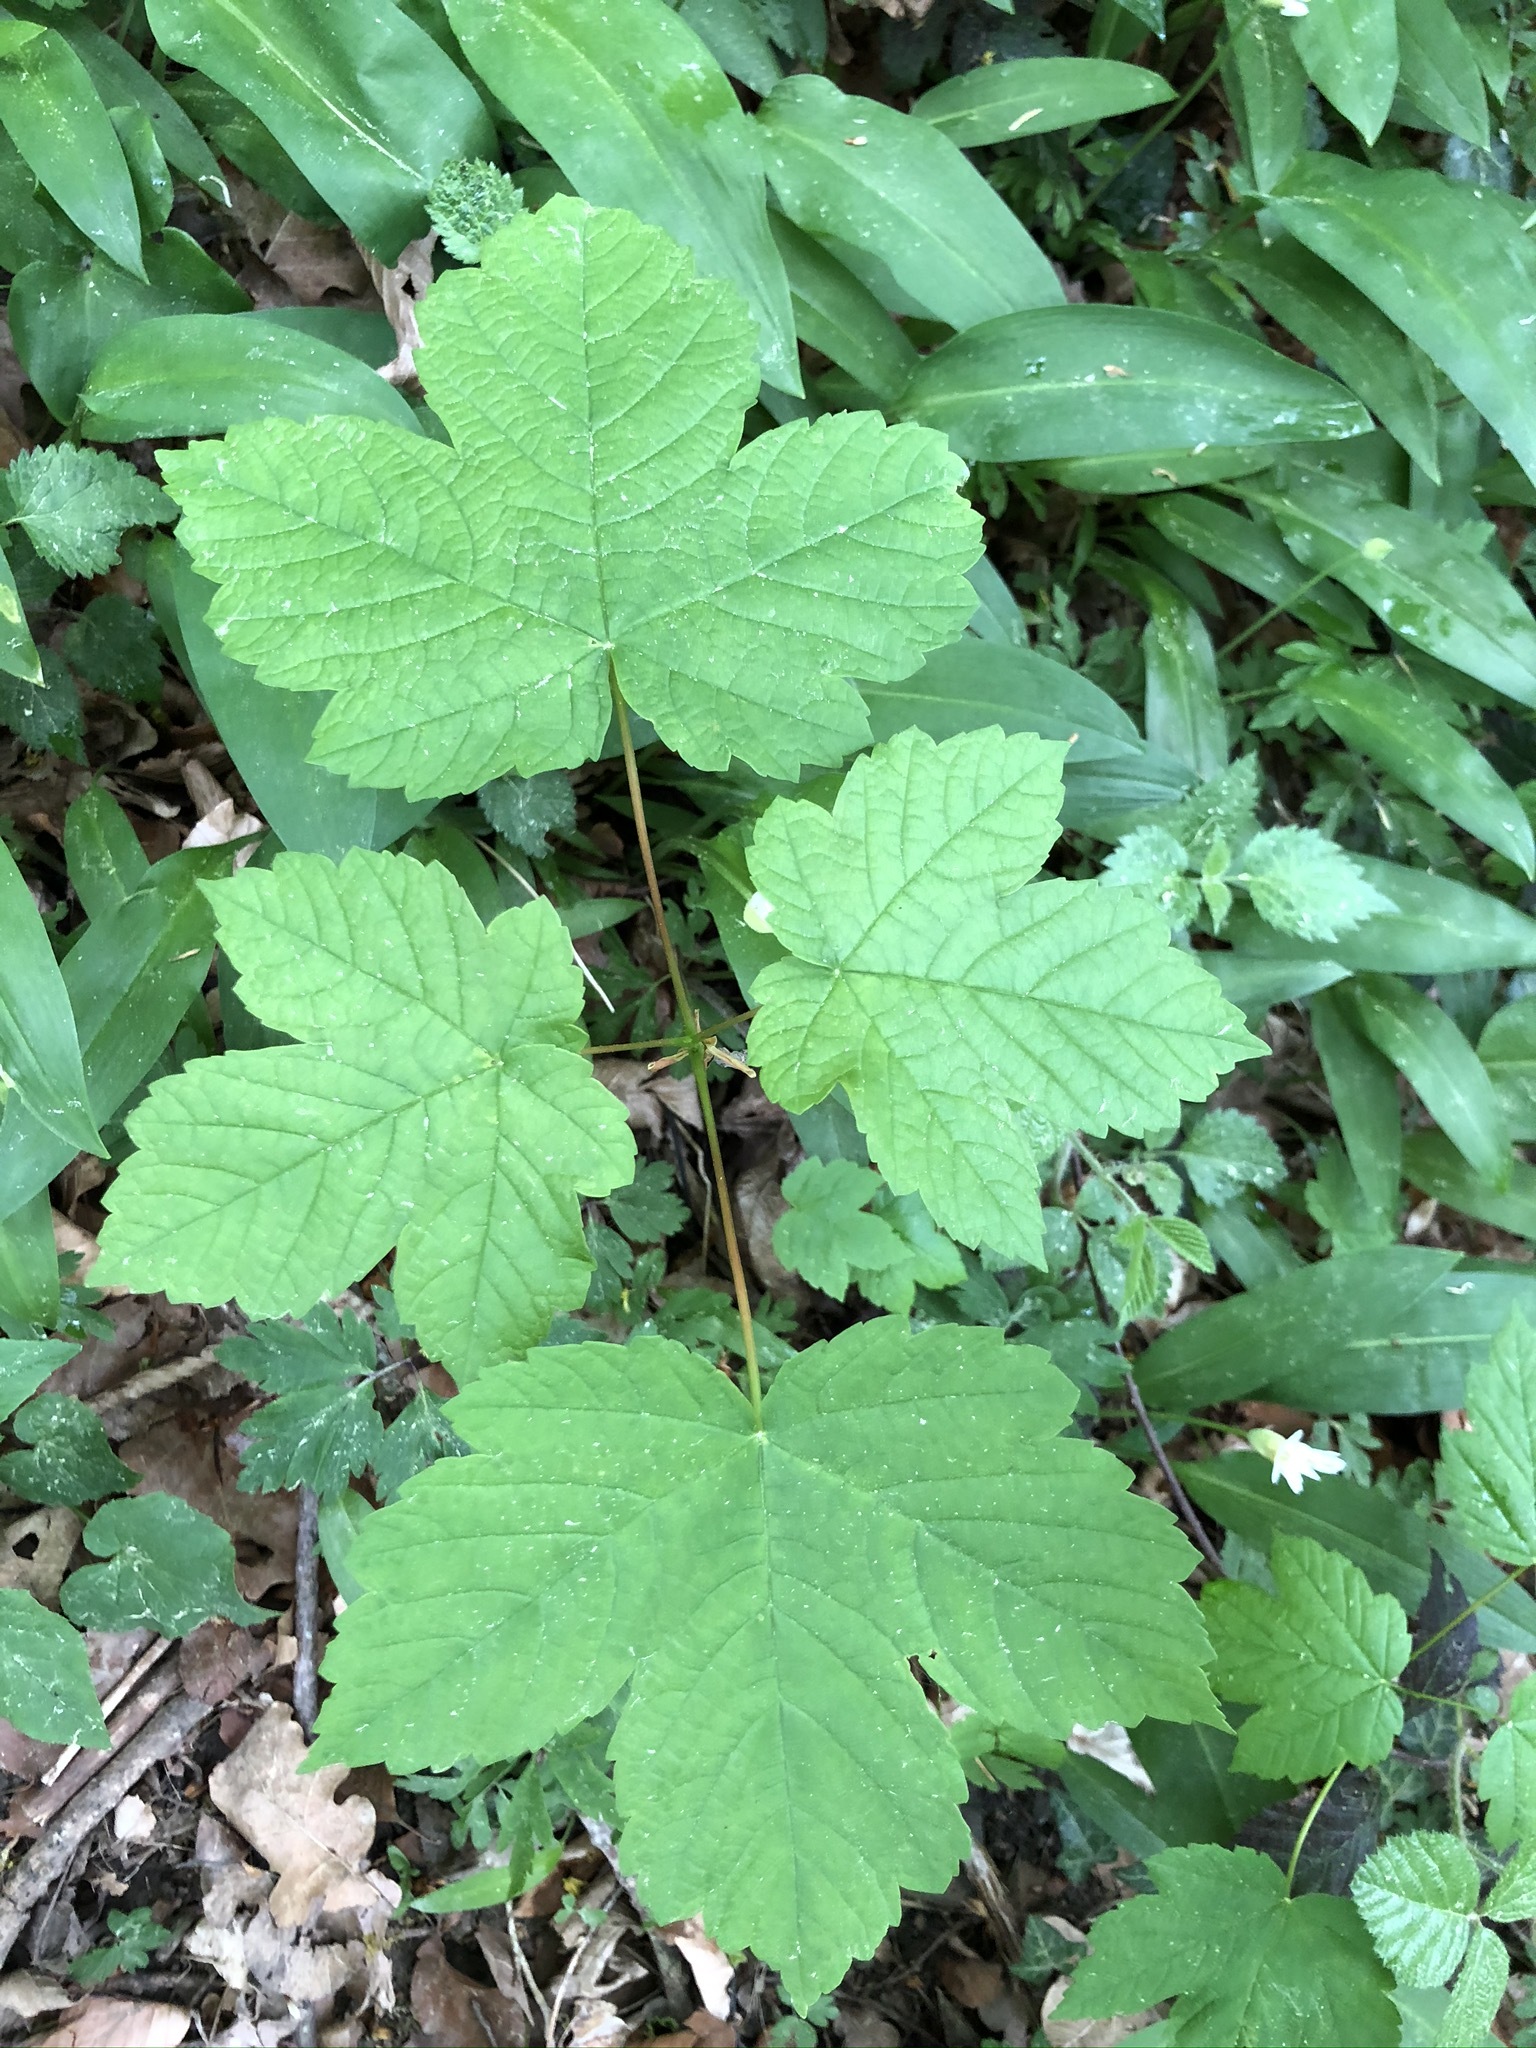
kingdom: Plantae
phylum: Tracheophyta
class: Magnoliopsida
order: Sapindales
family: Sapindaceae
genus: Acer
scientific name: Acer pseudoplatanus
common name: Sycamore
